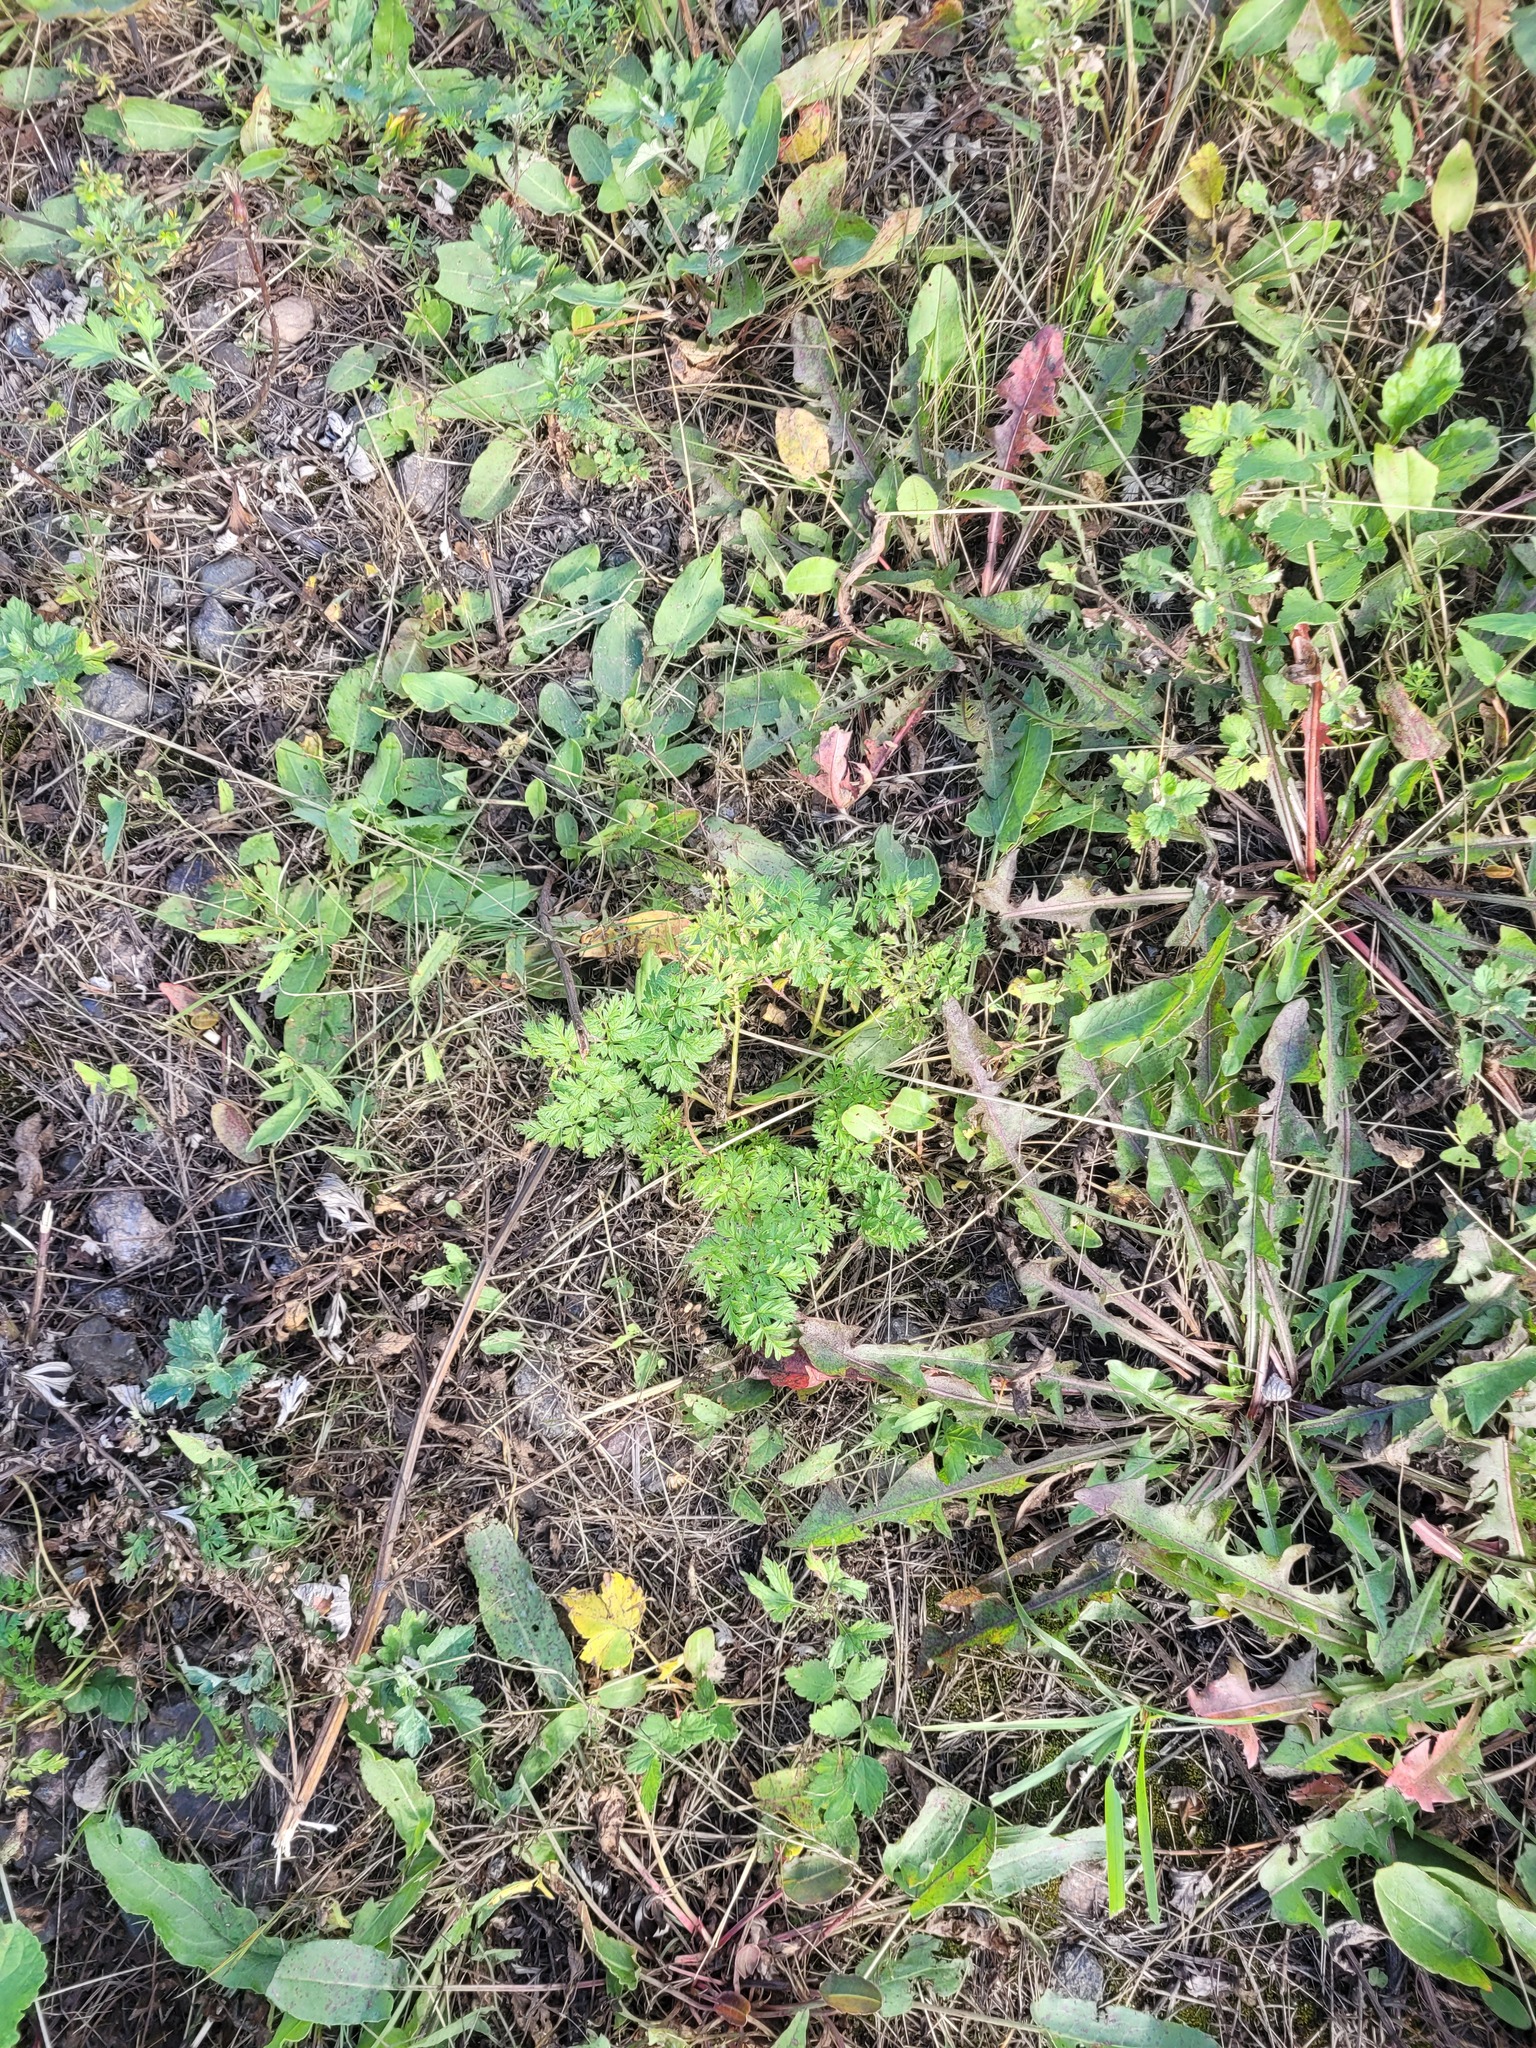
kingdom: Plantae
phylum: Tracheophyta
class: Magnoliopsida
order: Apiales
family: Apiaceae
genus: Anthriscus
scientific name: Anthriscus sylvestris
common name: Cow parsley
